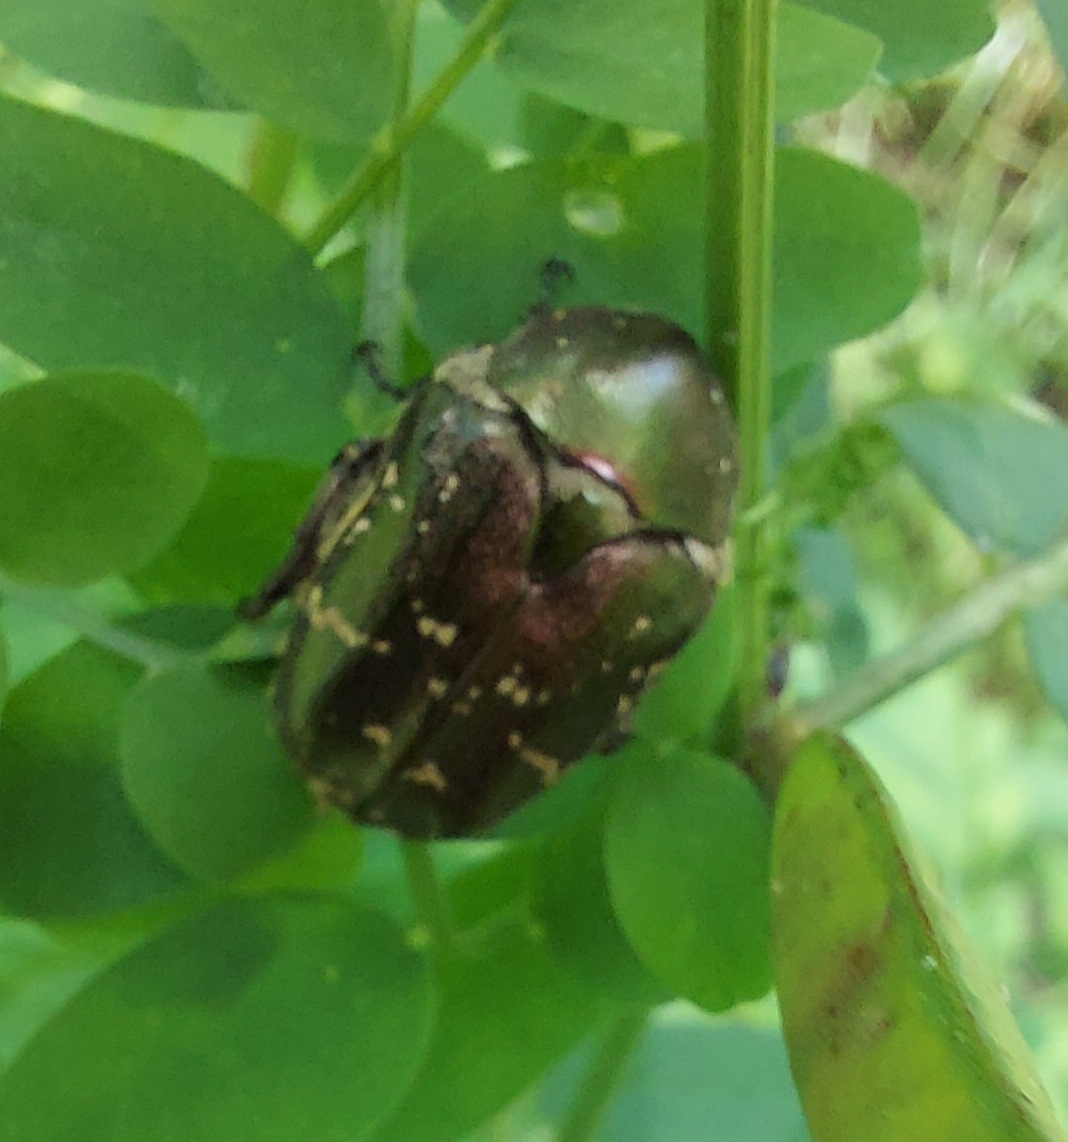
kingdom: Animalia
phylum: Arthropoda
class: Insecta
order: Coleoptera
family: Scarabaeidae
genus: Protaetia
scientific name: Protaetia cuprea
